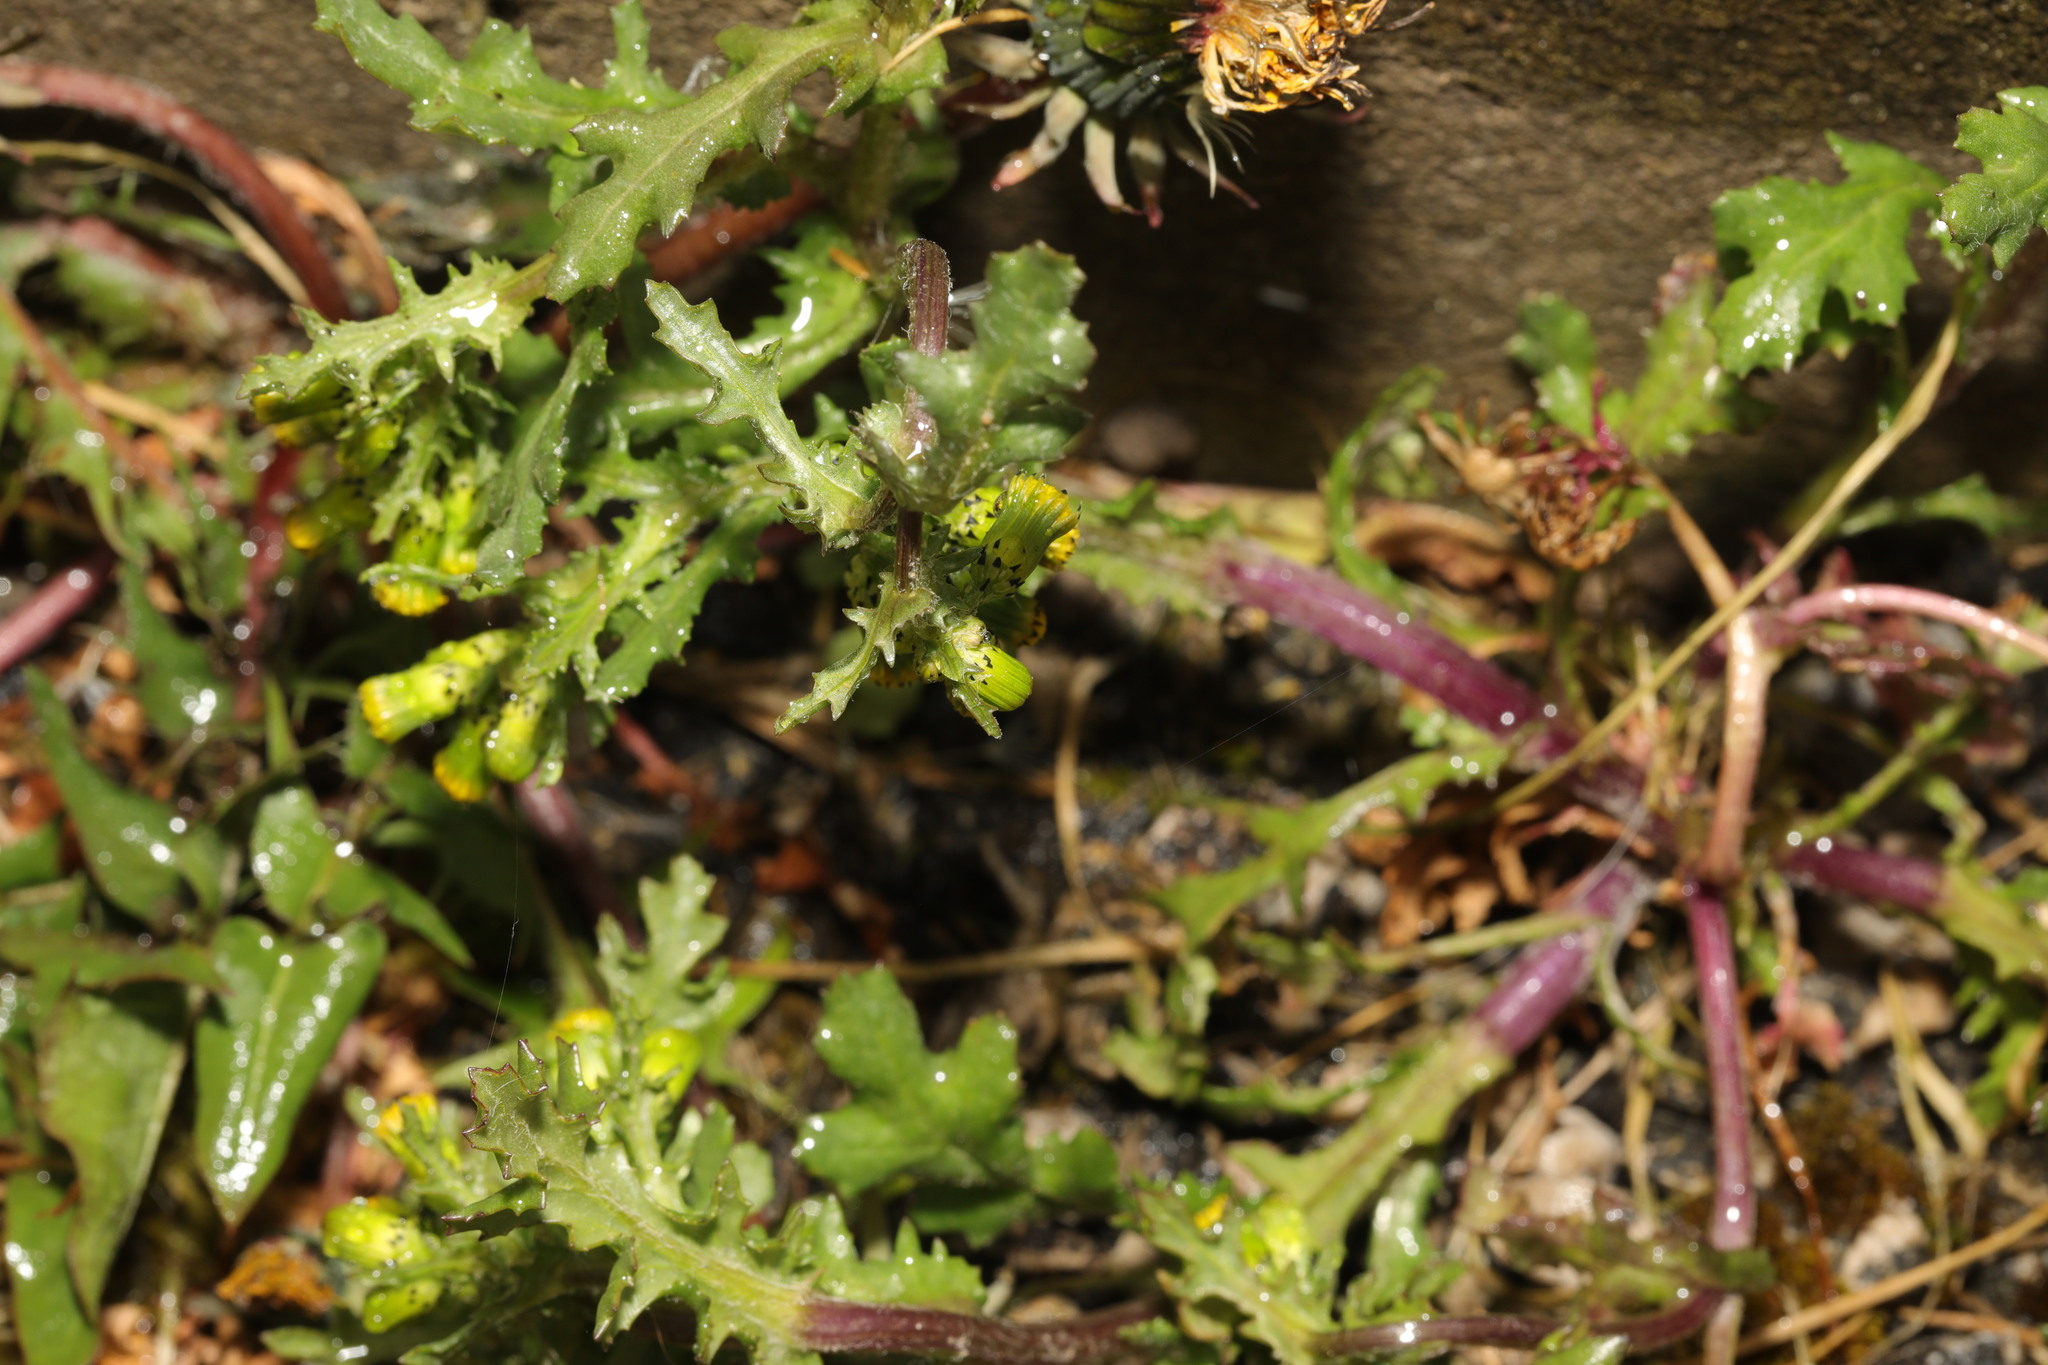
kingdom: Plantae
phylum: Tracheophyta
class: Magnoliopsida
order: Asterales
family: Asteraceae
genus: Senecio
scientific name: Senecio vulgaris
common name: Old-man-in-the-spring
